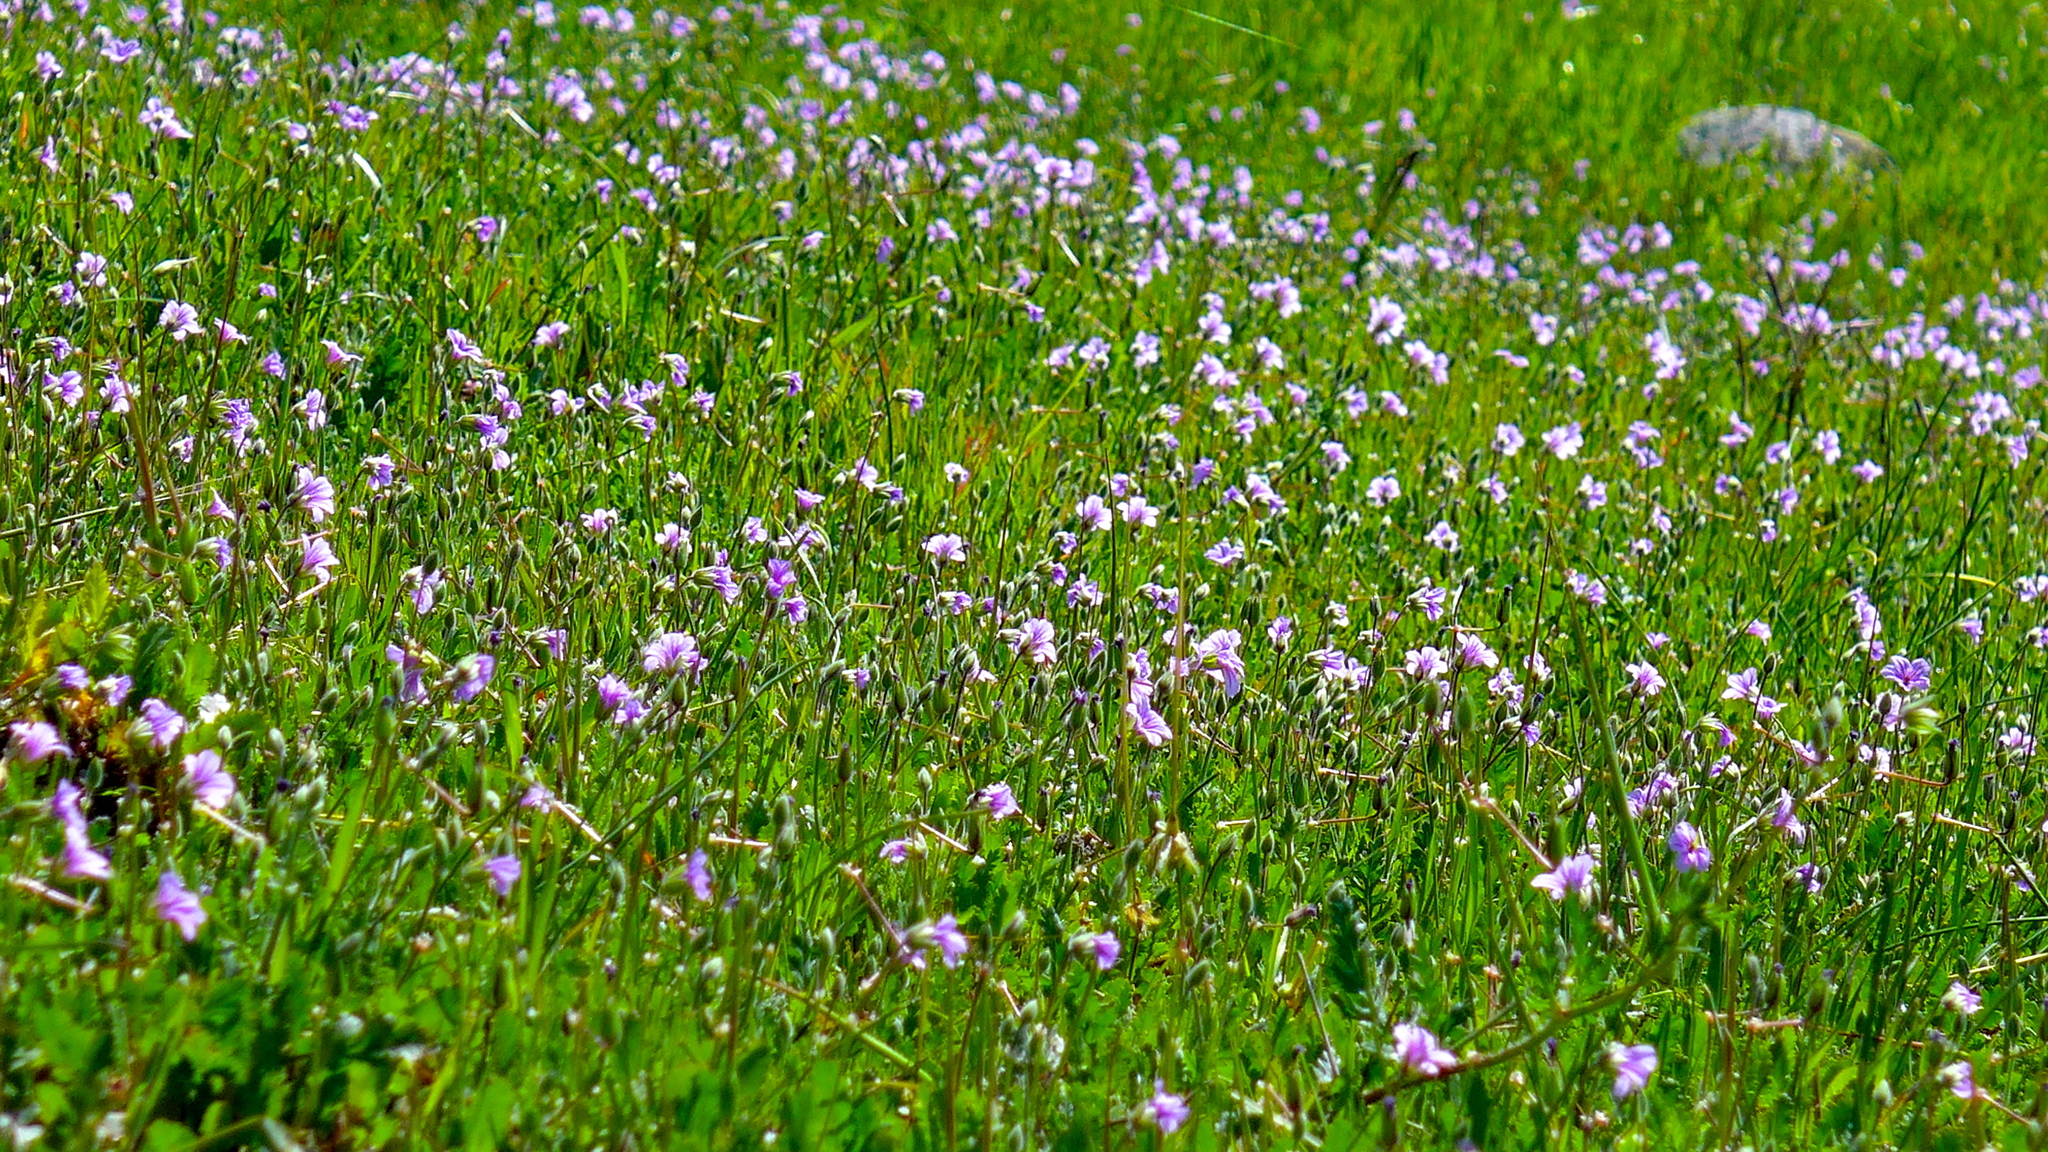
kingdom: Plantae
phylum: Tracheophyta
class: Magnoliopsida
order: Geraniales
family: Geraniaceae
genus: Erodium
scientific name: Erodium botrys
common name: Mediterranean stork's-bill
